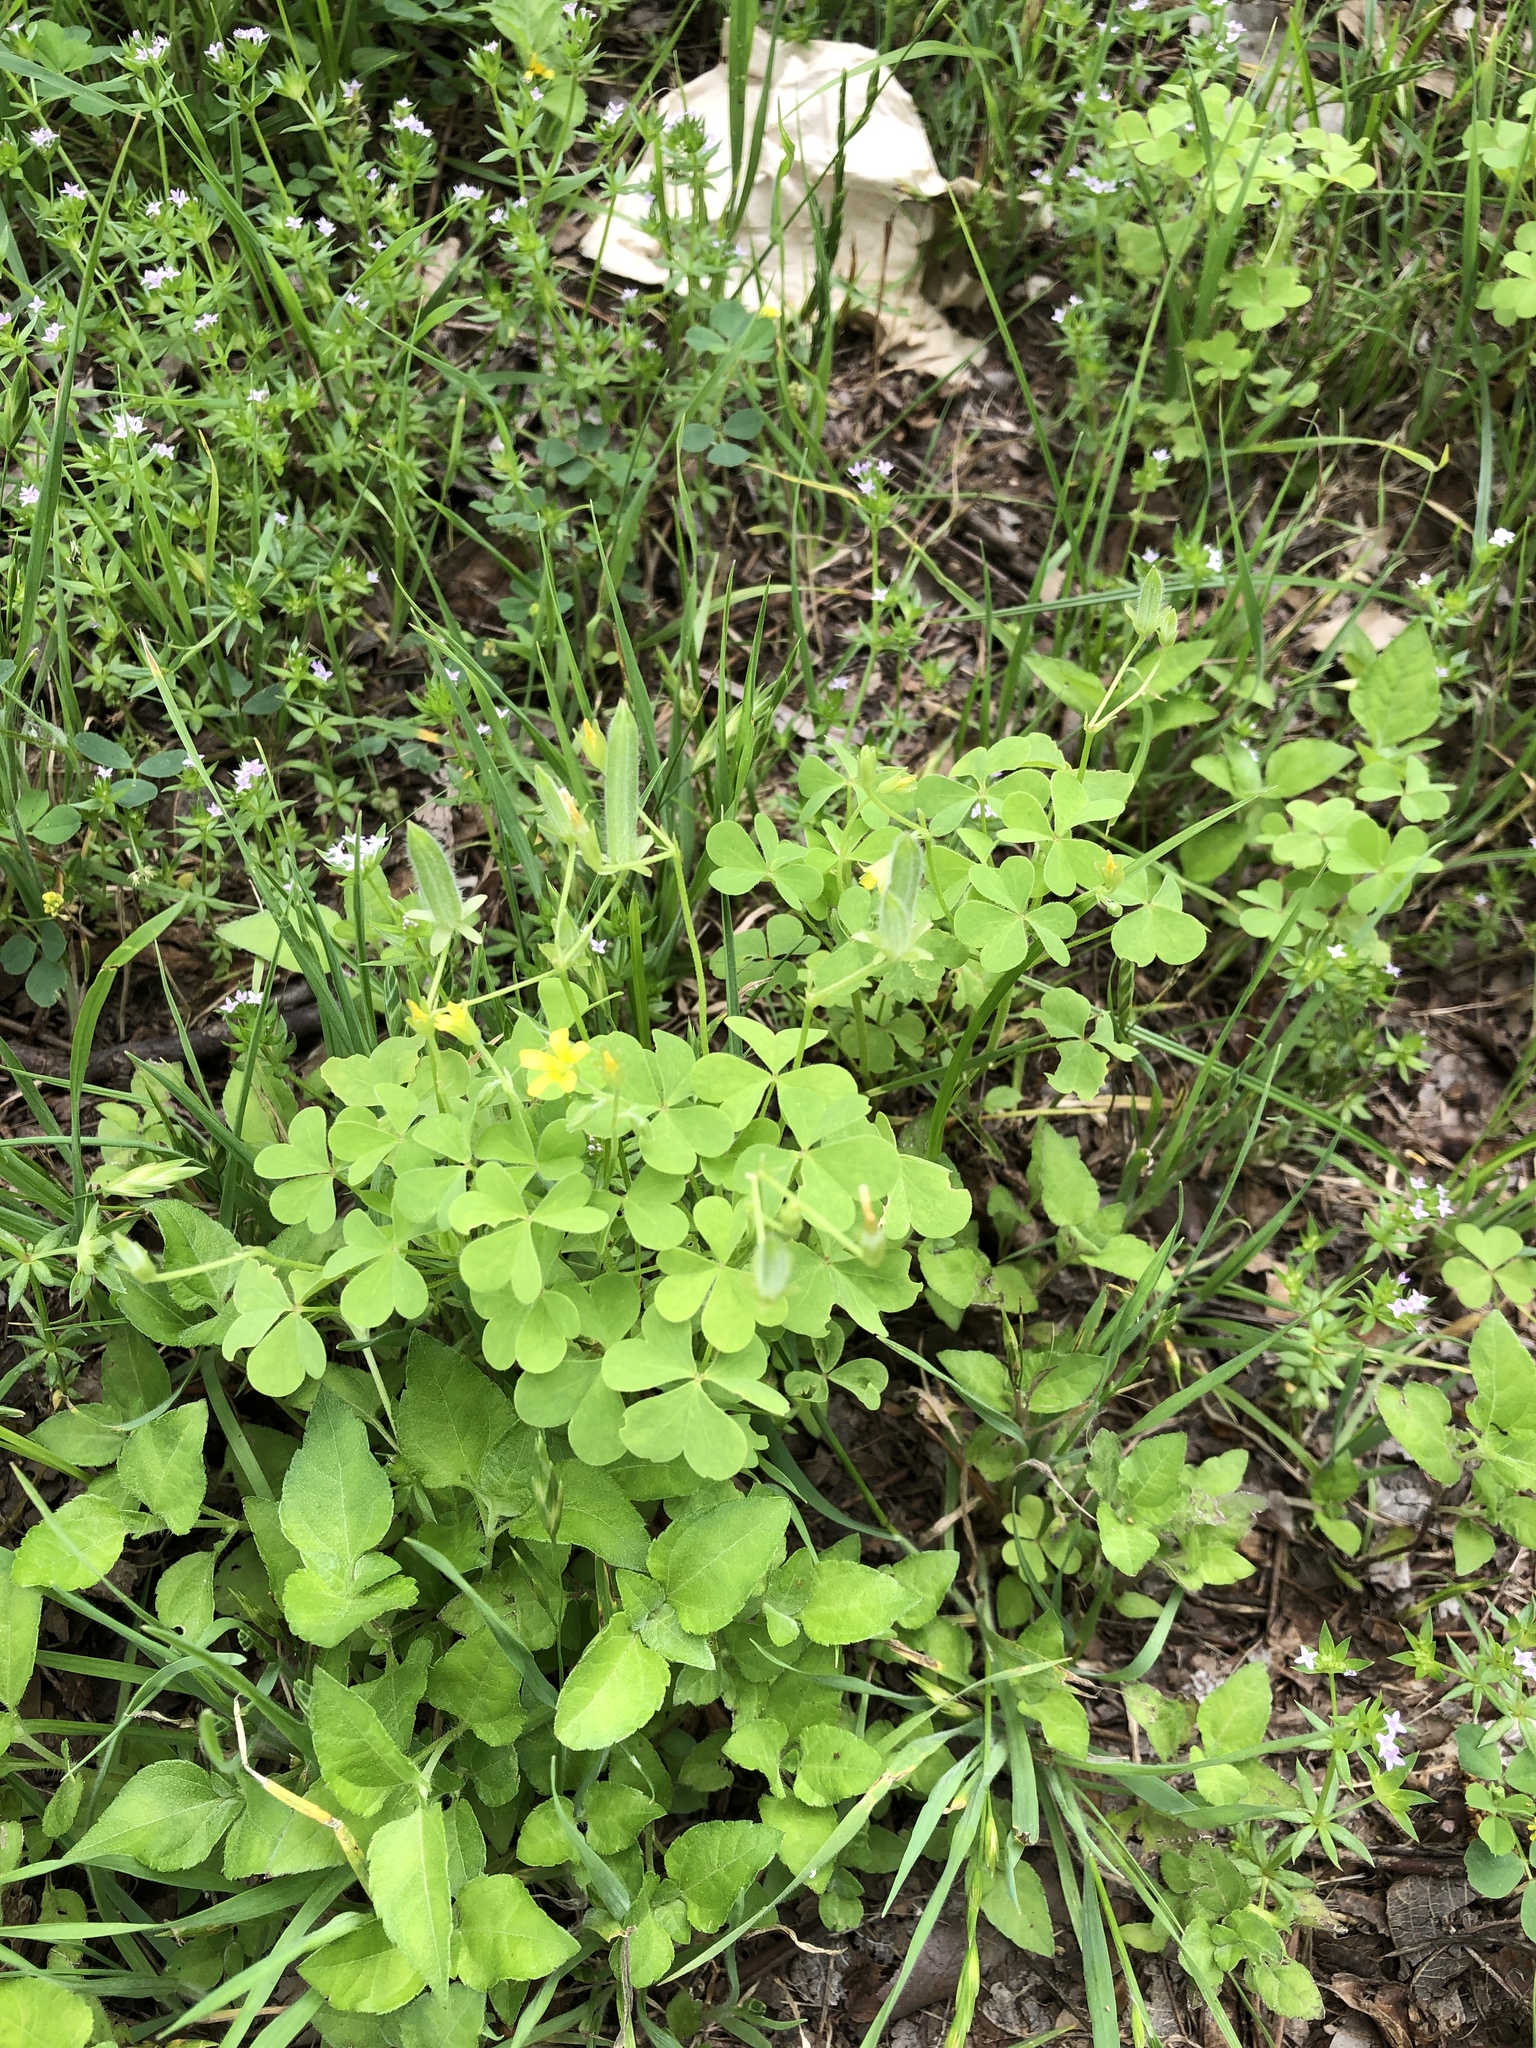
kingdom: Plantae
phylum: Tracheophyta
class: Magnoliopsida
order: Oxalidales
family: Oxalidaceae
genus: Oxalis
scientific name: Oxalis dillenii
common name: Sussex yellow-sorrel
